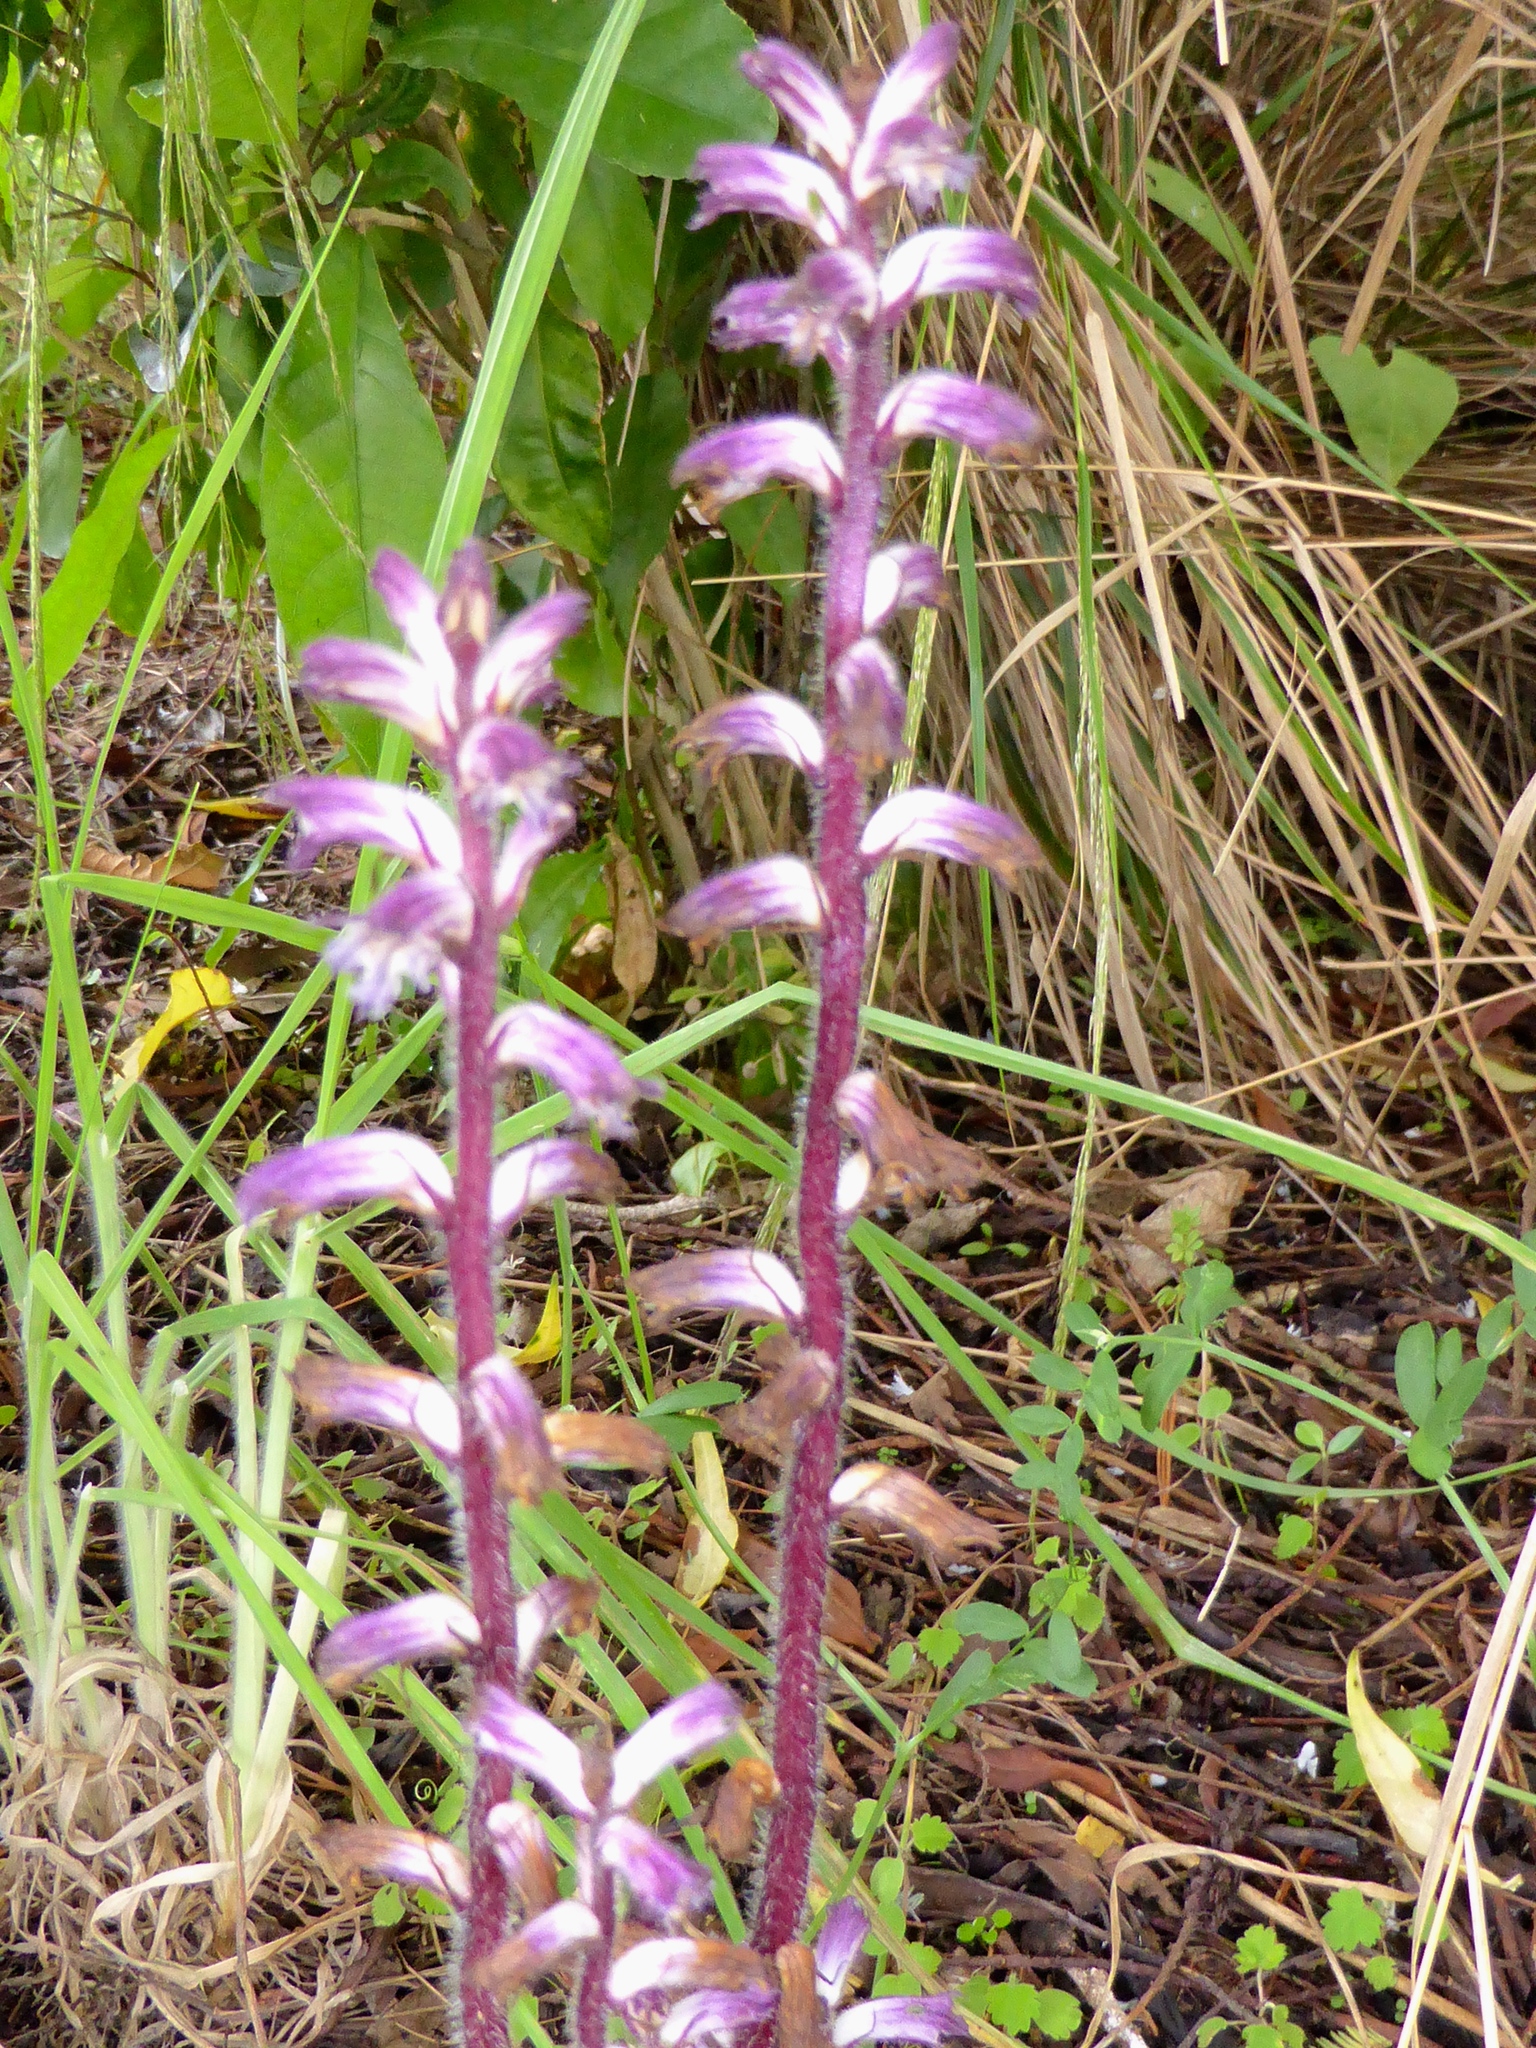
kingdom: Plantae
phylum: Tracheophyta
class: Magnoliopsida
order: Lamiales
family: Orobanchaceae
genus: Orobanche
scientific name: Orobanche minor
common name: Common broomrape
